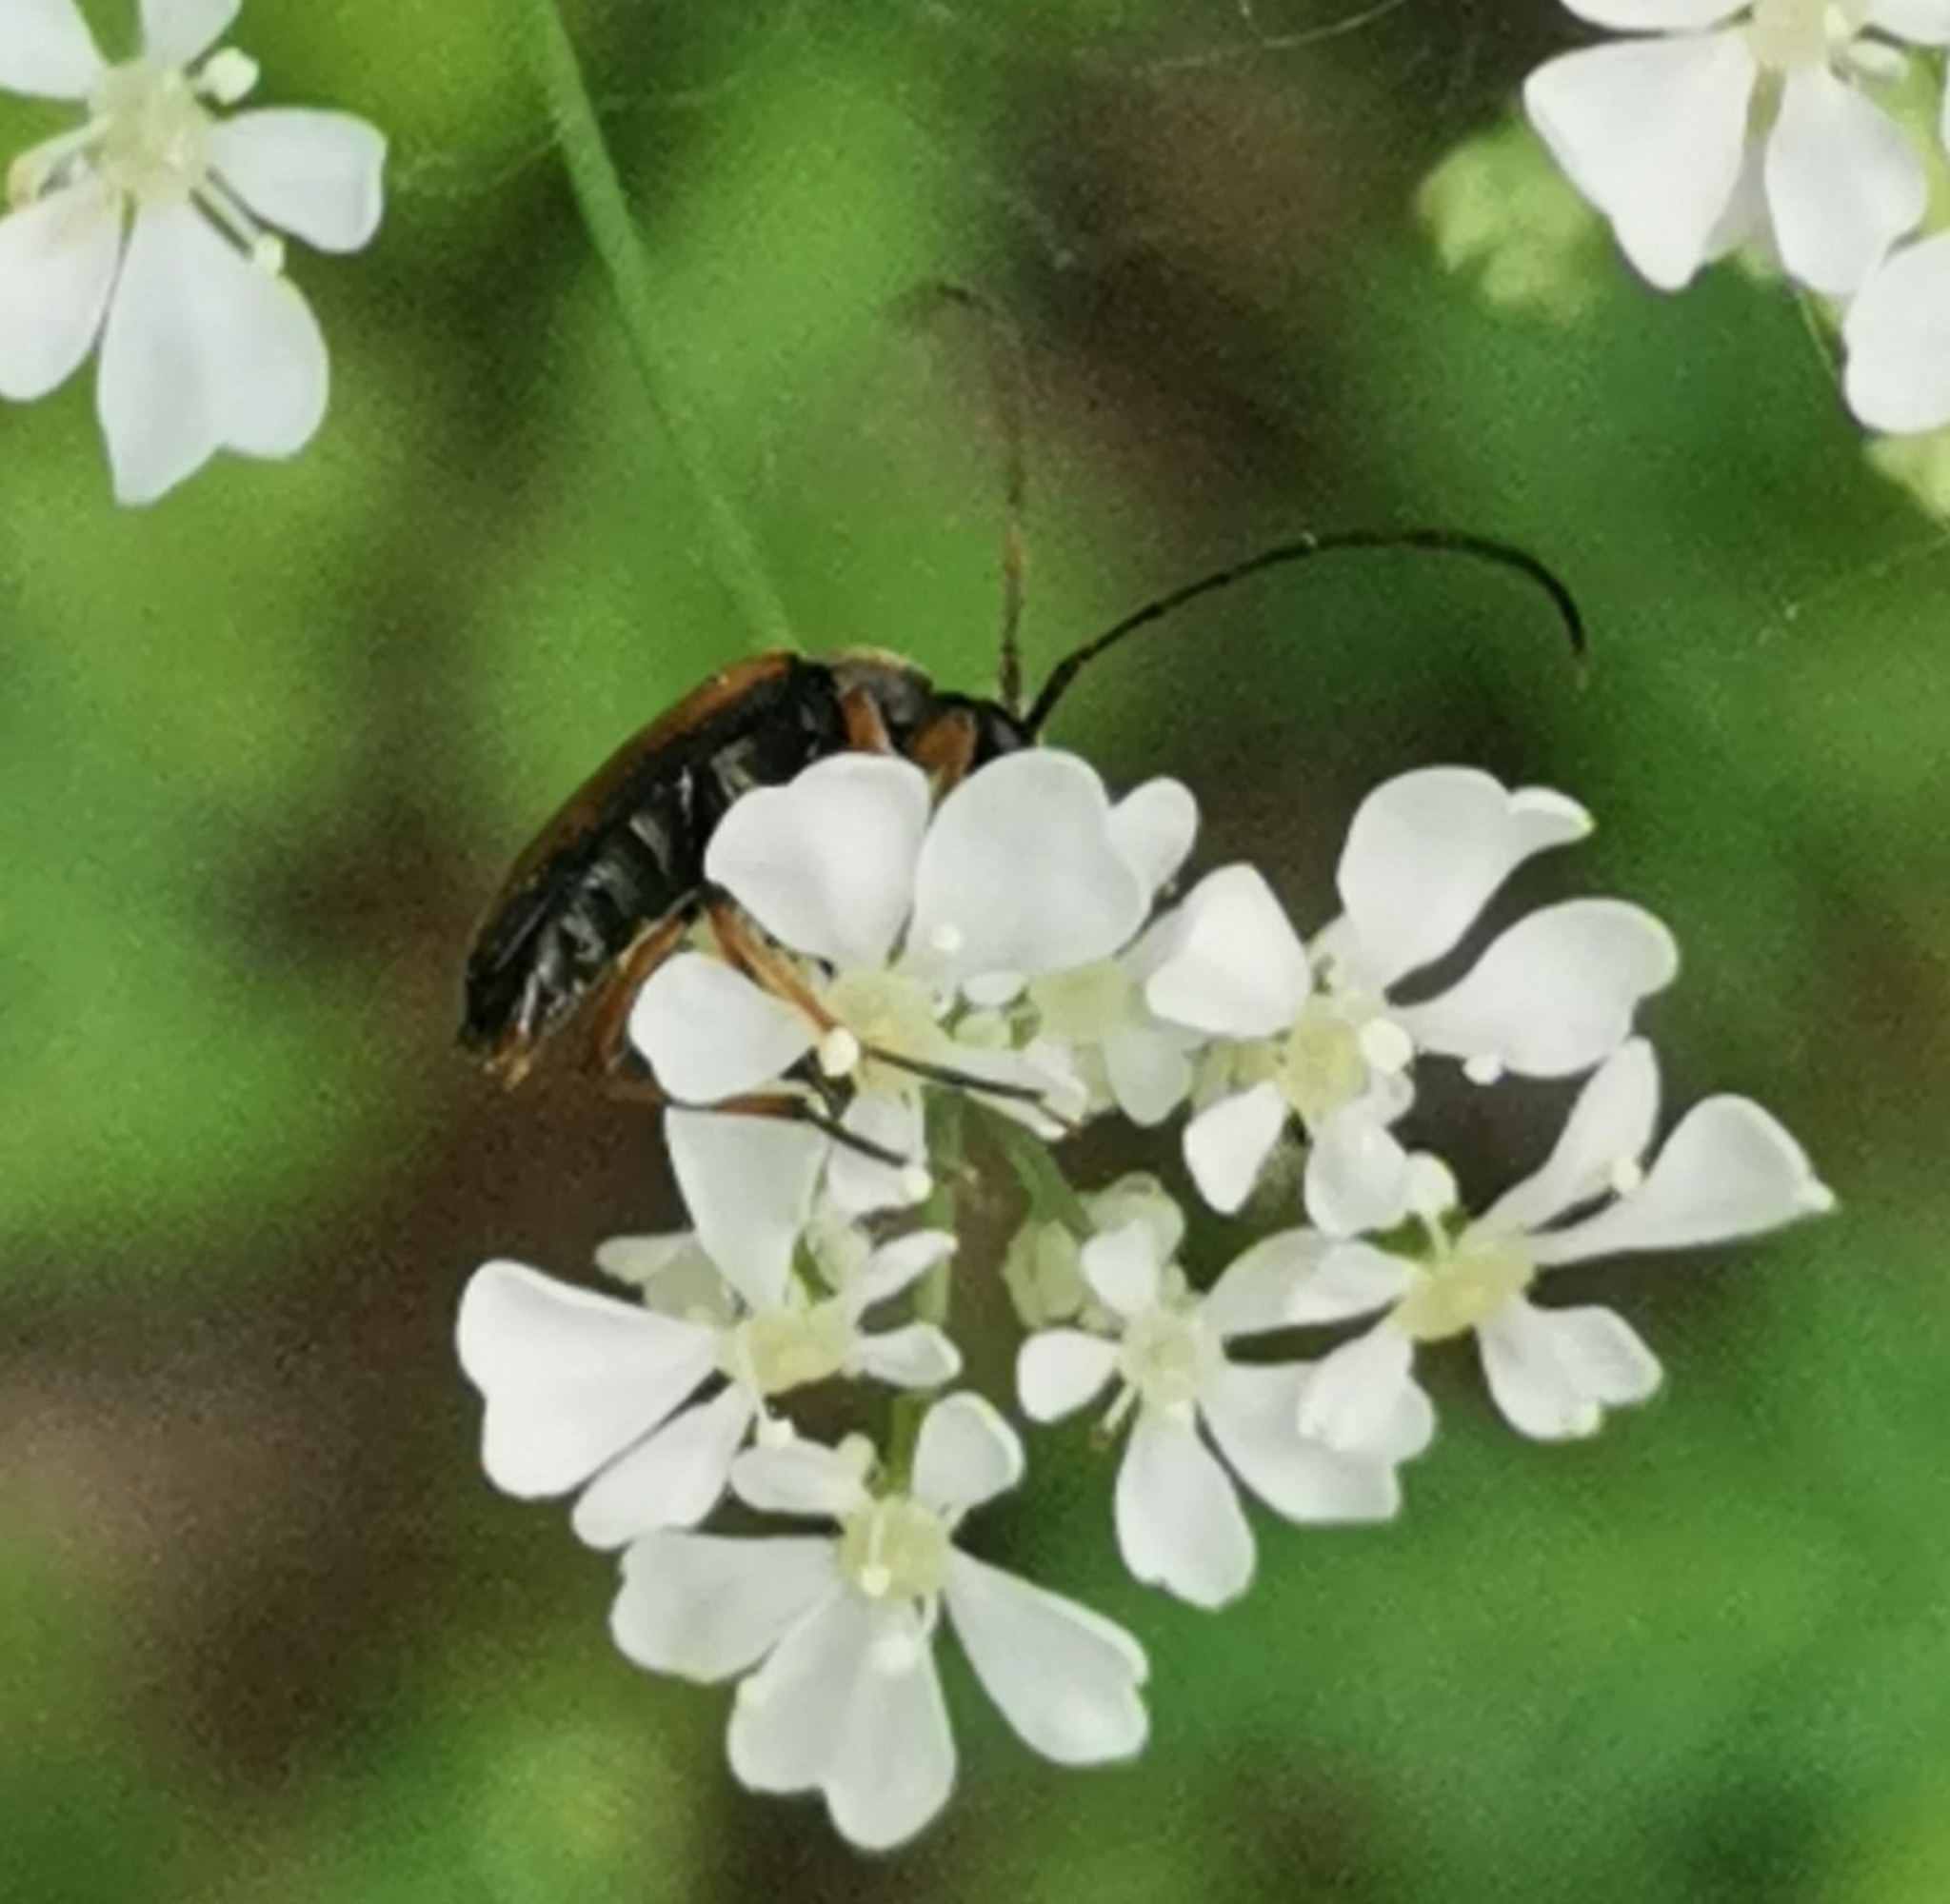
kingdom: Animalia
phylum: Arthropoda
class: Insecta
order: Coleoptera
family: Cerambycidae
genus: Alosterna
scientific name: Alosterna tabacicolor
